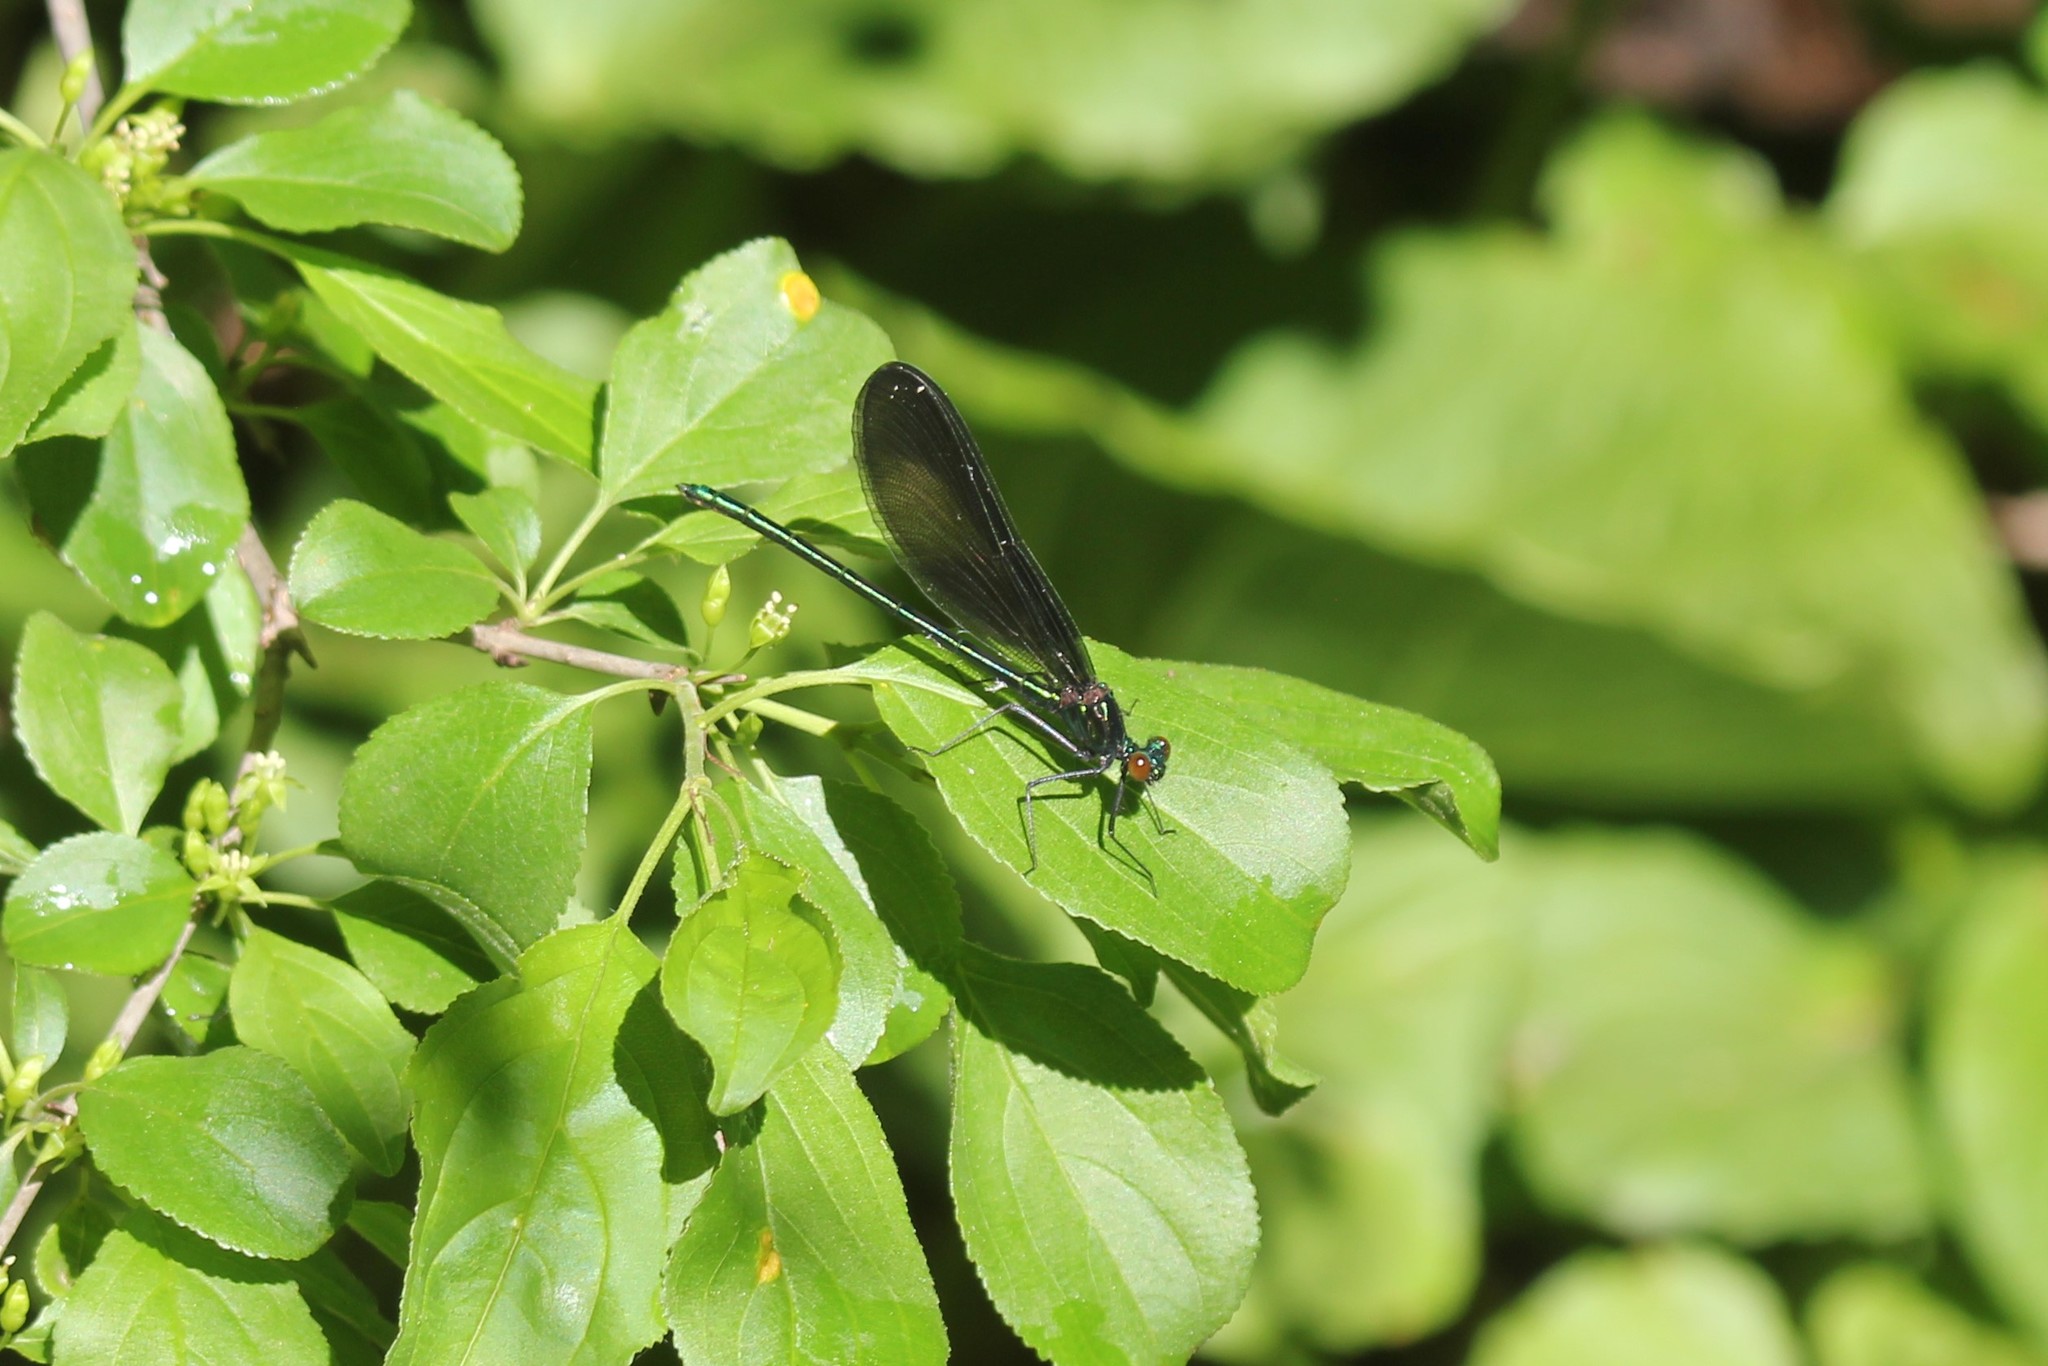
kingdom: Animalia
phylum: Arthropoda
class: Insecta
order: Odonata
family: Calopterygidae
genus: Calopteryx
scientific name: Calopteryx maculata
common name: Ebony jewelwing
